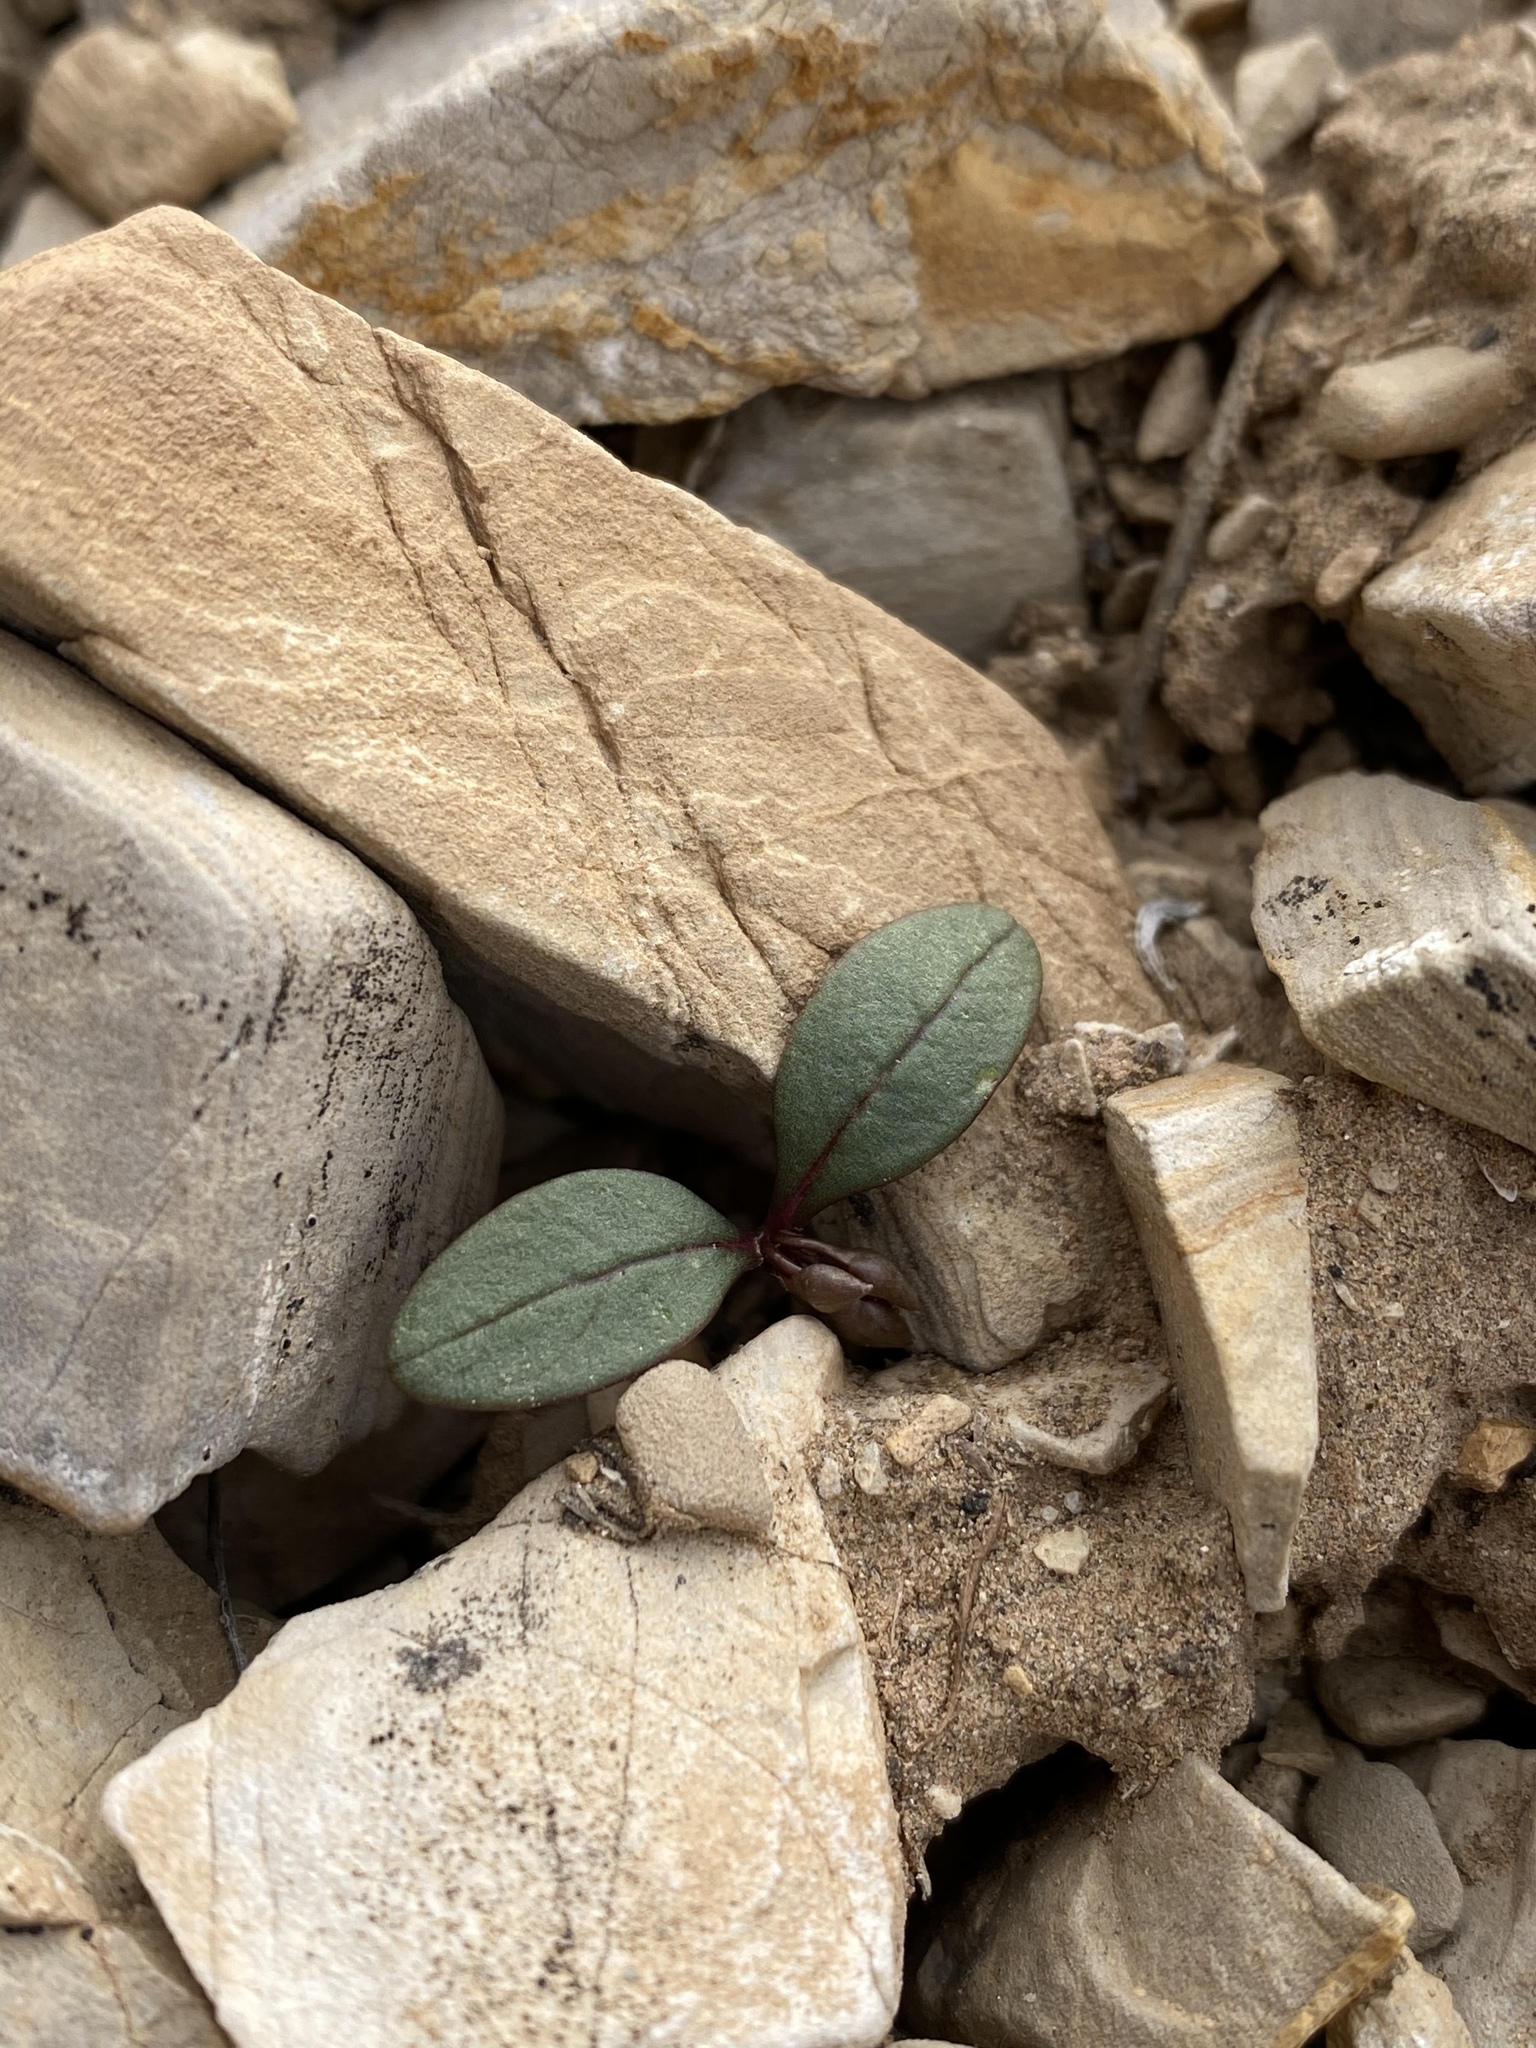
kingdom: Plantae
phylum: Tracheophyta
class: Magnoliopsida
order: Caryophyllales
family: Montiaceae
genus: Claytonia
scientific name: Claytonia panamintensis
